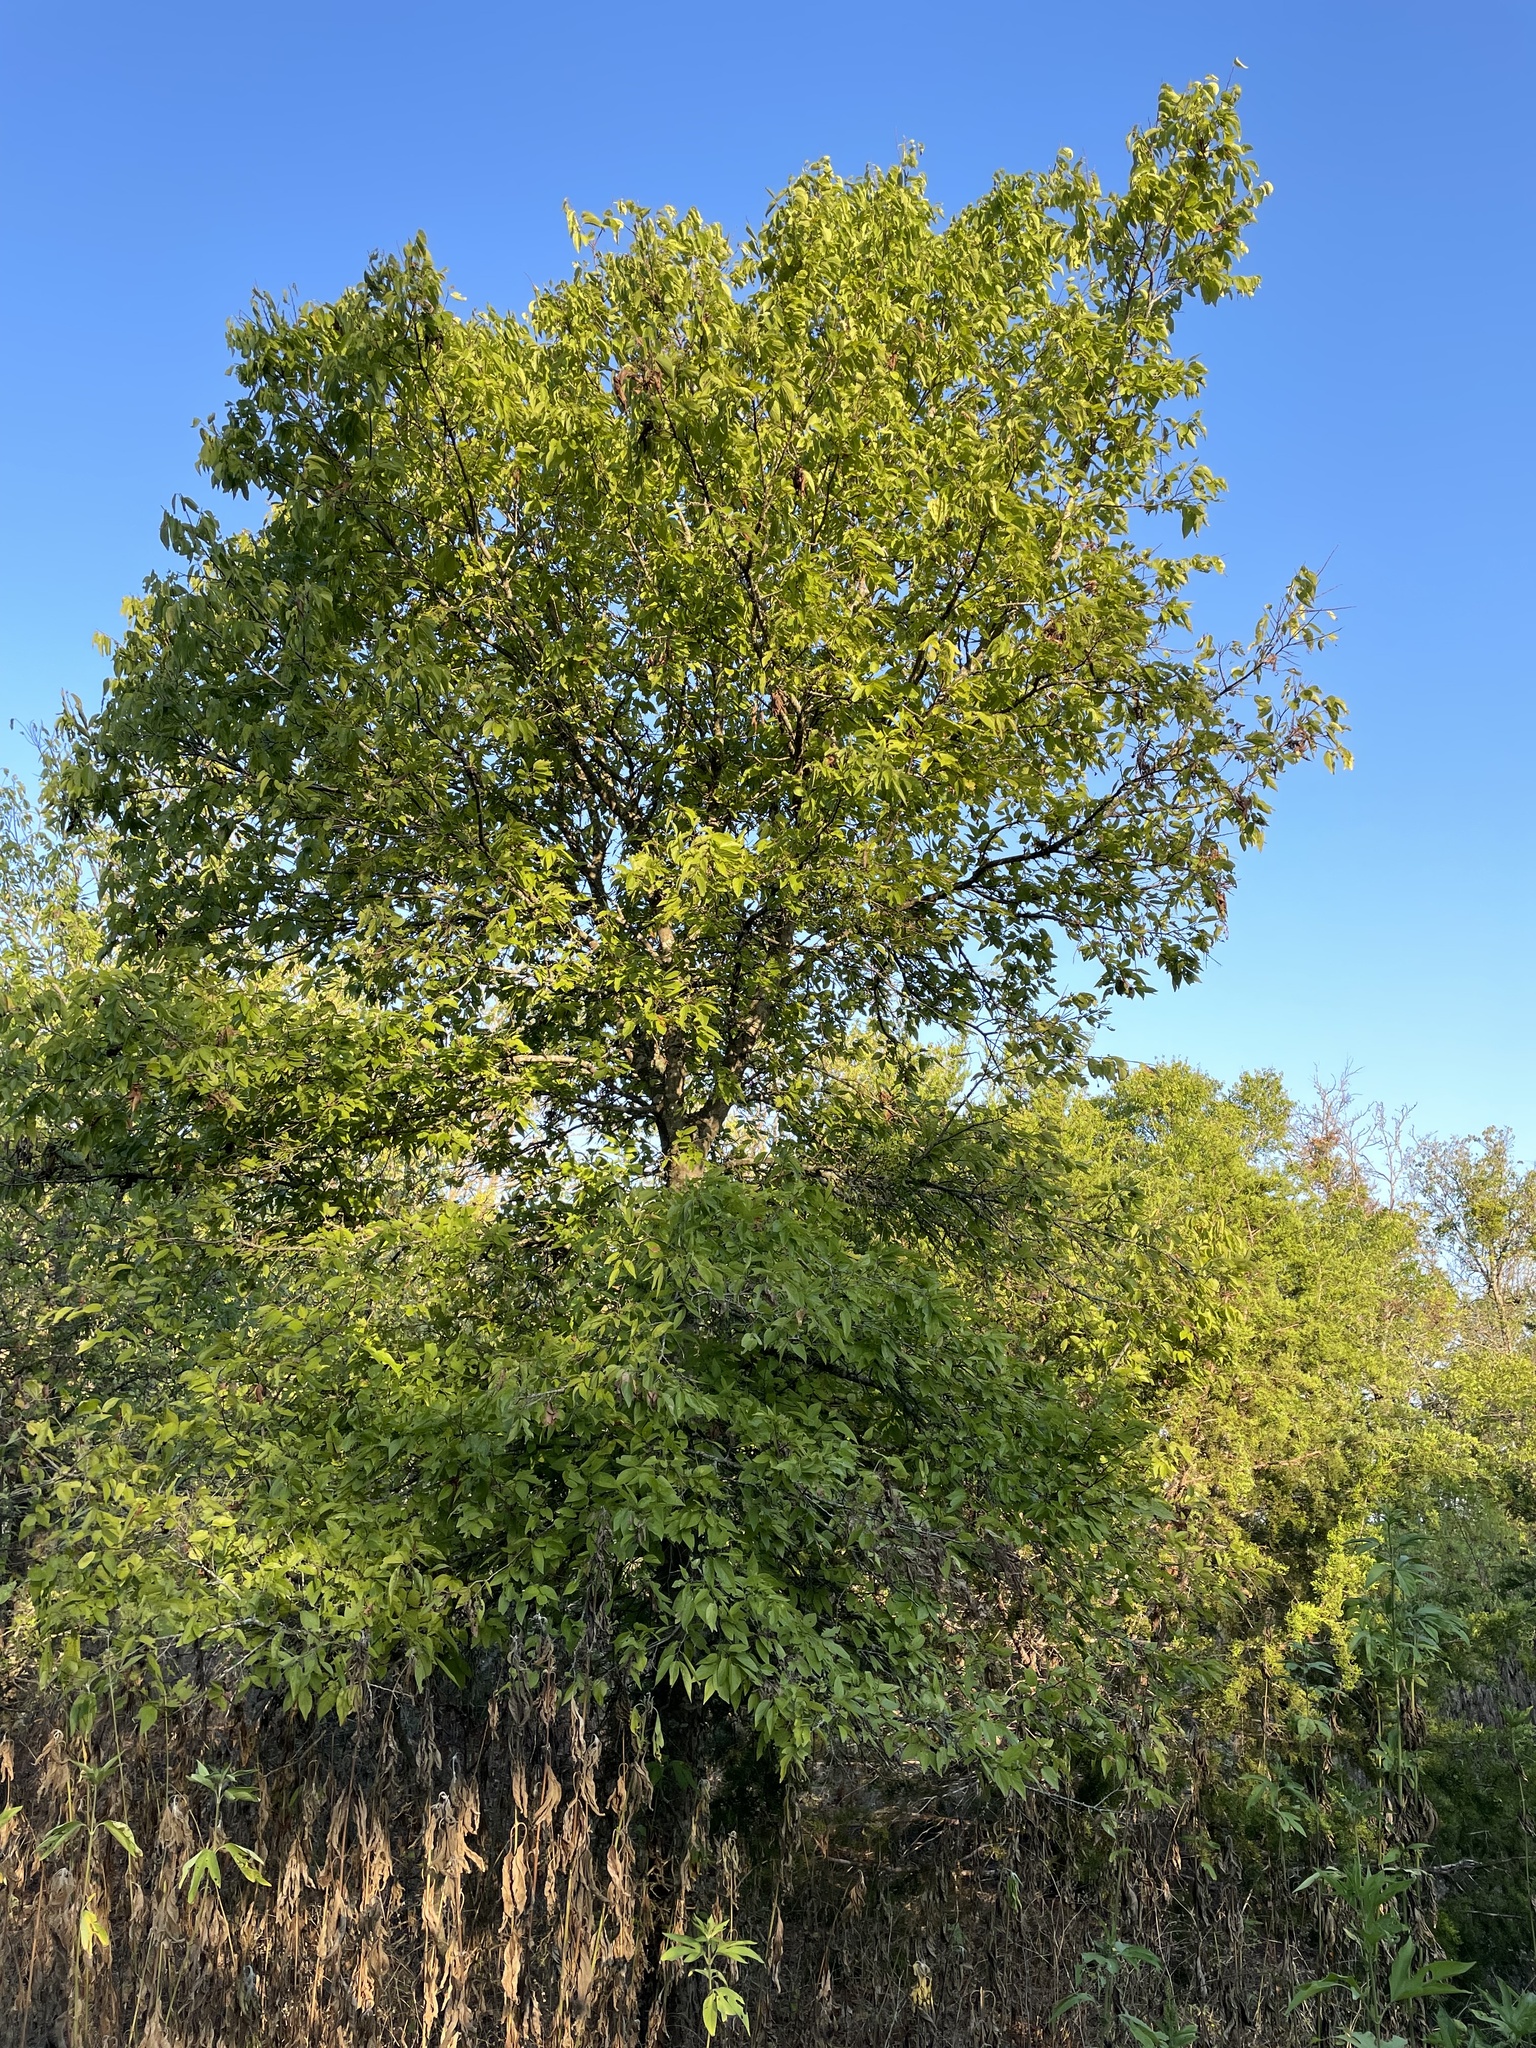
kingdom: Plantae
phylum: Tracheophyta
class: Magnoliopsida
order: Rosales
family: Cannabaceae
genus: Celtis
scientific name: Celtis laevigata
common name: Sugarberry
